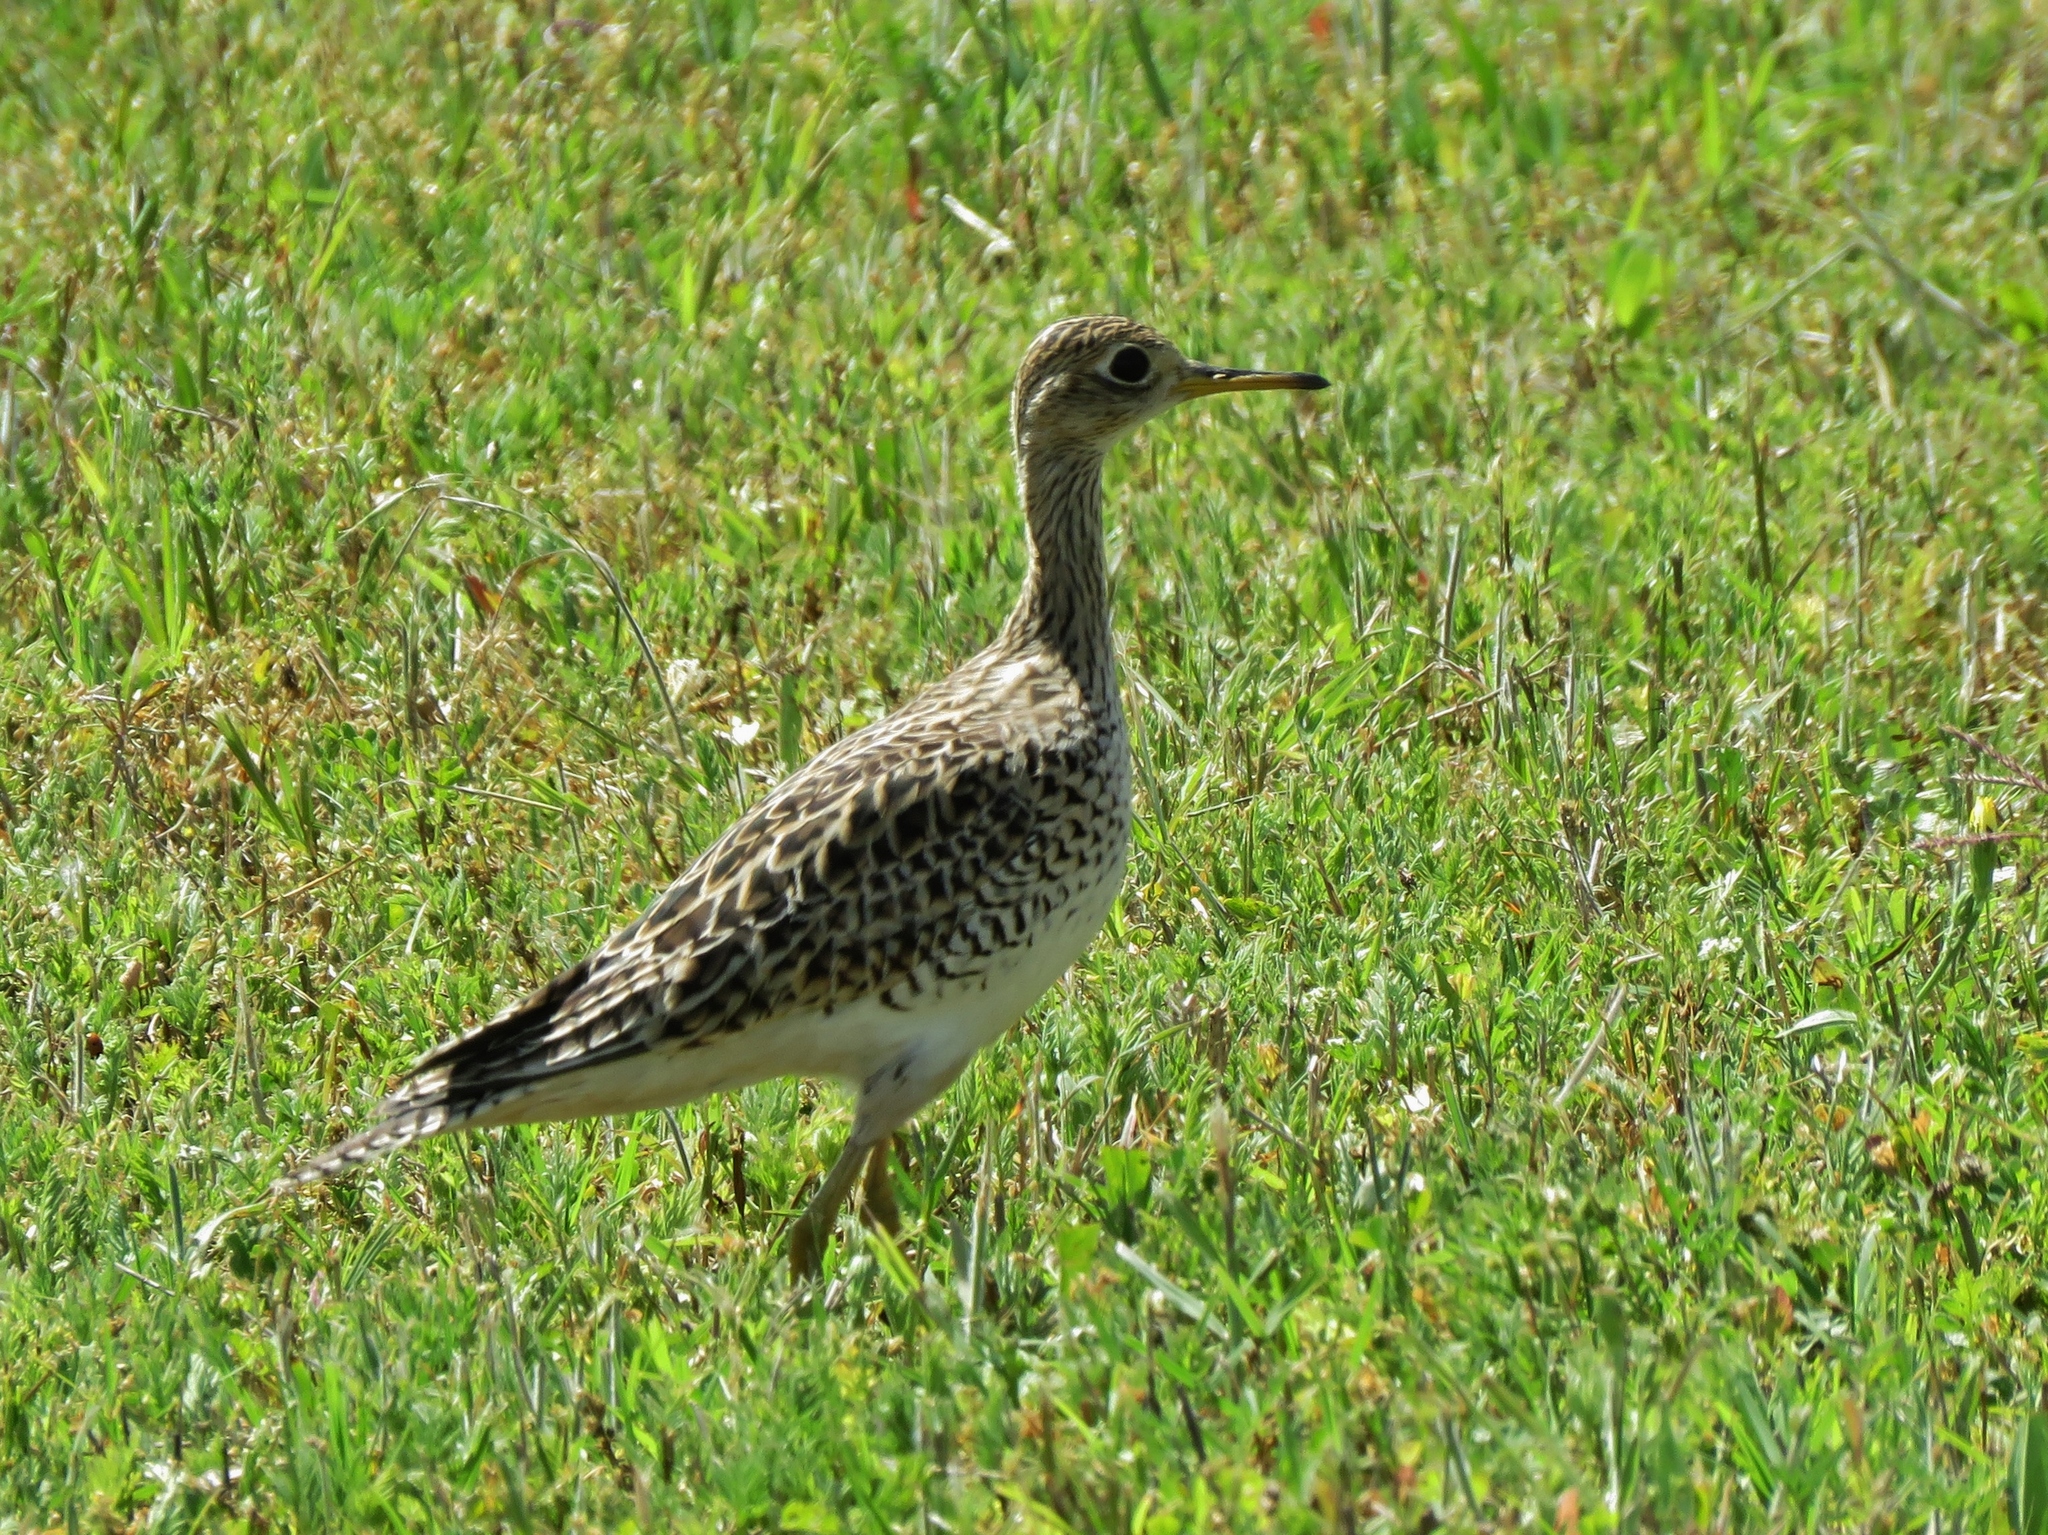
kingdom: Animalia
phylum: Chordata
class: Aves
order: Charadriiformes
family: Scolopacidae
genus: Bartramia
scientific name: Bartramia longicauda
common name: Upland sandpiper
